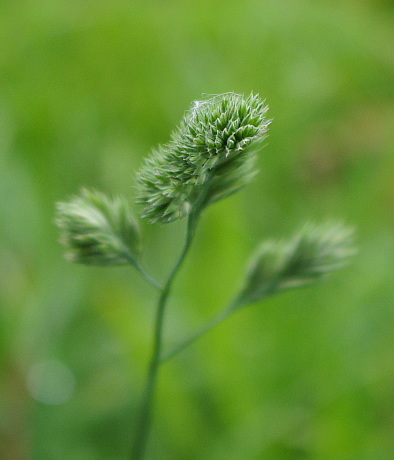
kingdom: Plantae
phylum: Tracheophyta
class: Liliopsida
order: Poales
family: Poaceae
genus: Dactylis
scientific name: Dactylis glomerata
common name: Orchardgrass
